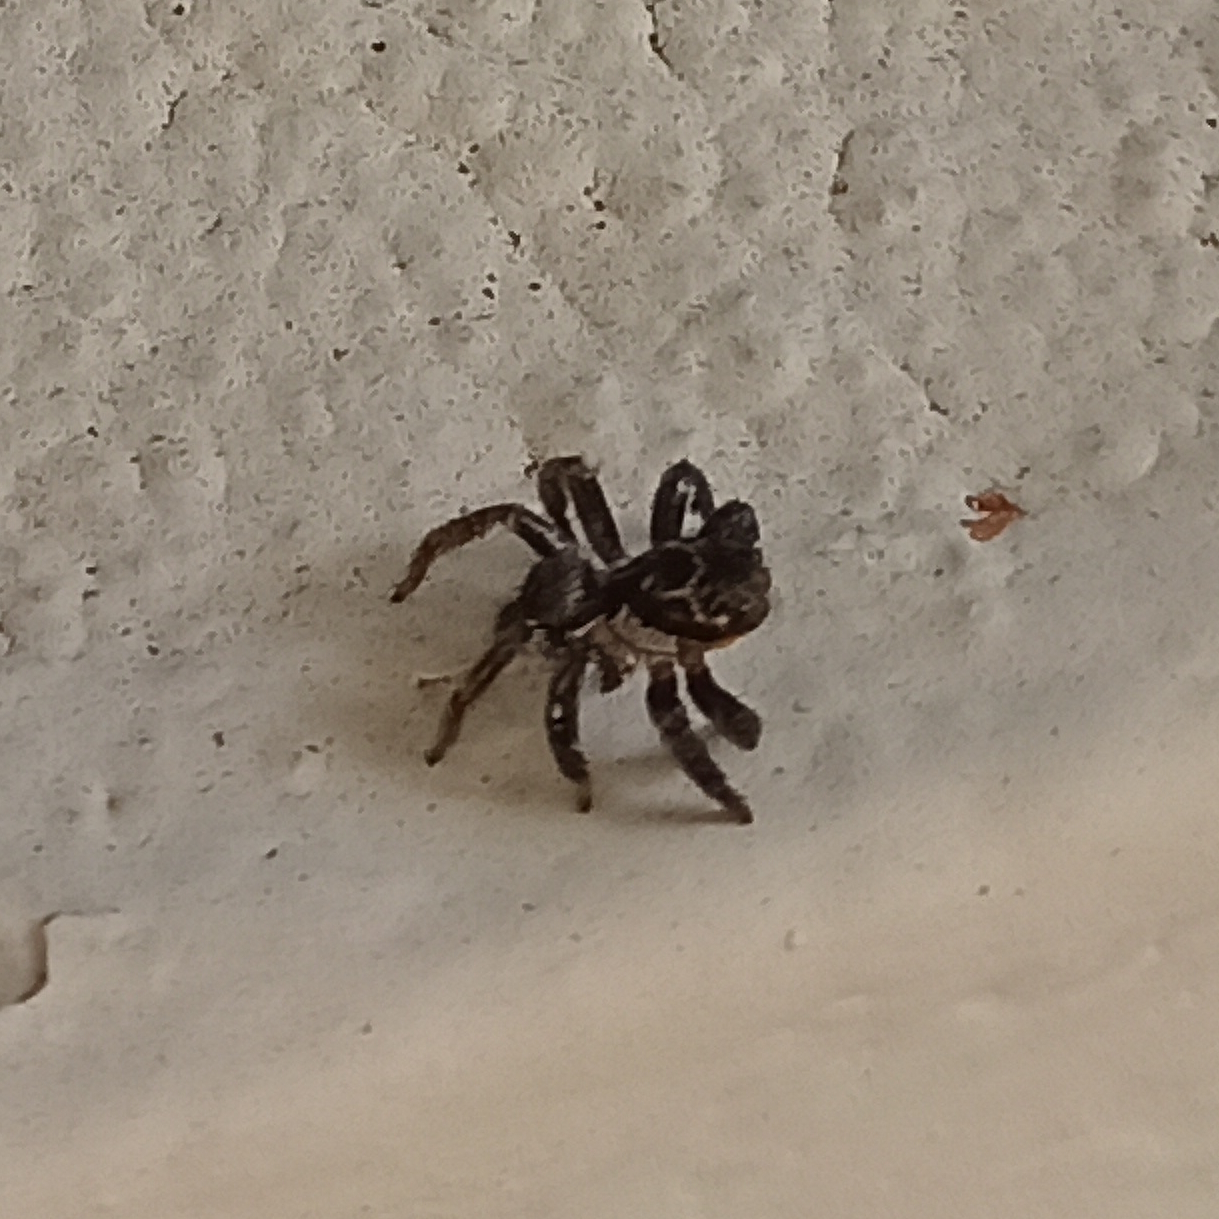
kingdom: Animalia
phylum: Arthropoda
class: Arachnida
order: Araneae
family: Salticidae
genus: Corythalia
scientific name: Corythalia conferta
